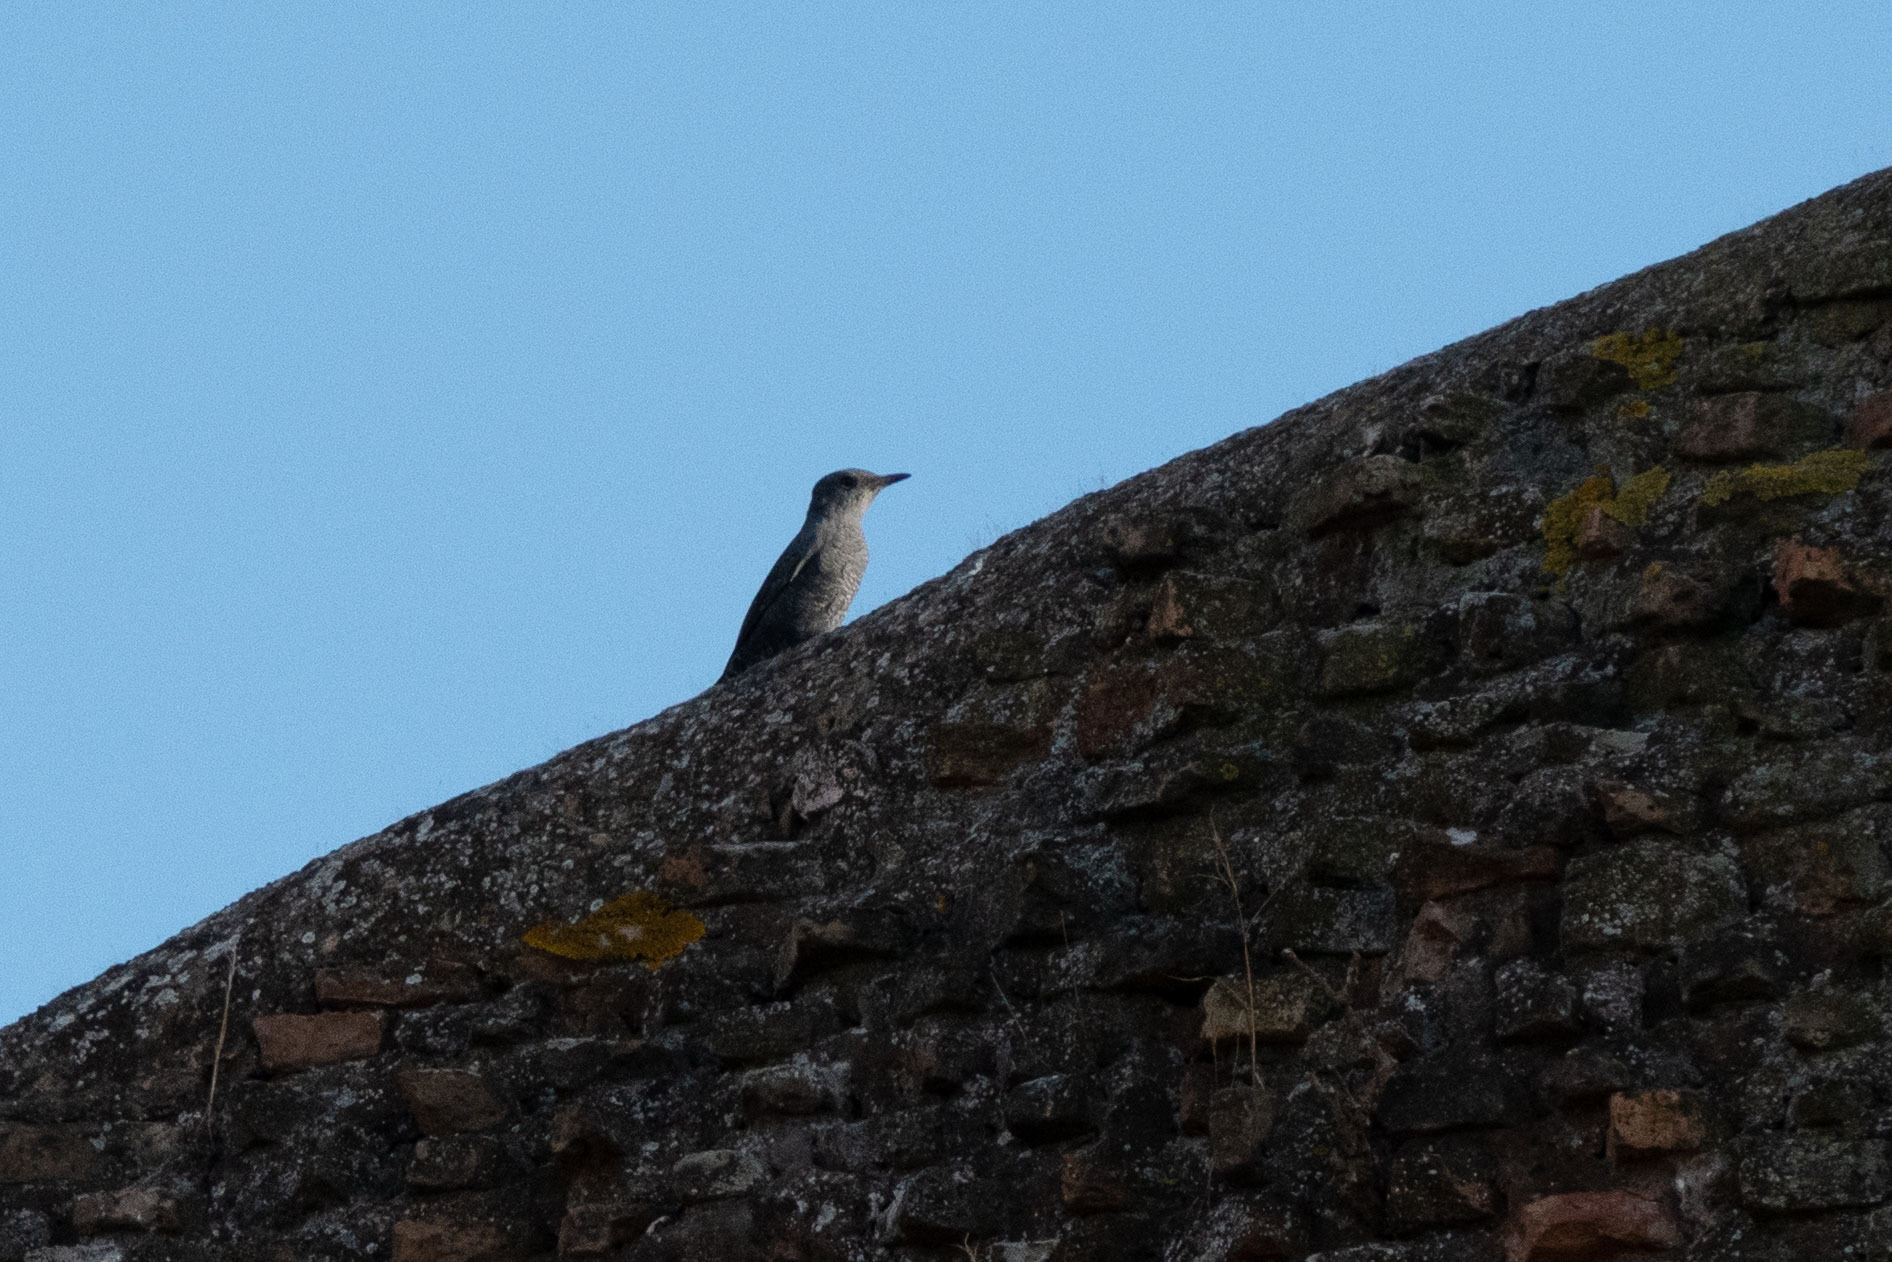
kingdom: Animalia
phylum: Chordata
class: Aves
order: Passeriformes
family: Muscicapidae
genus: Monticola
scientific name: Monticola solitarius
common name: Blue rock thrush
